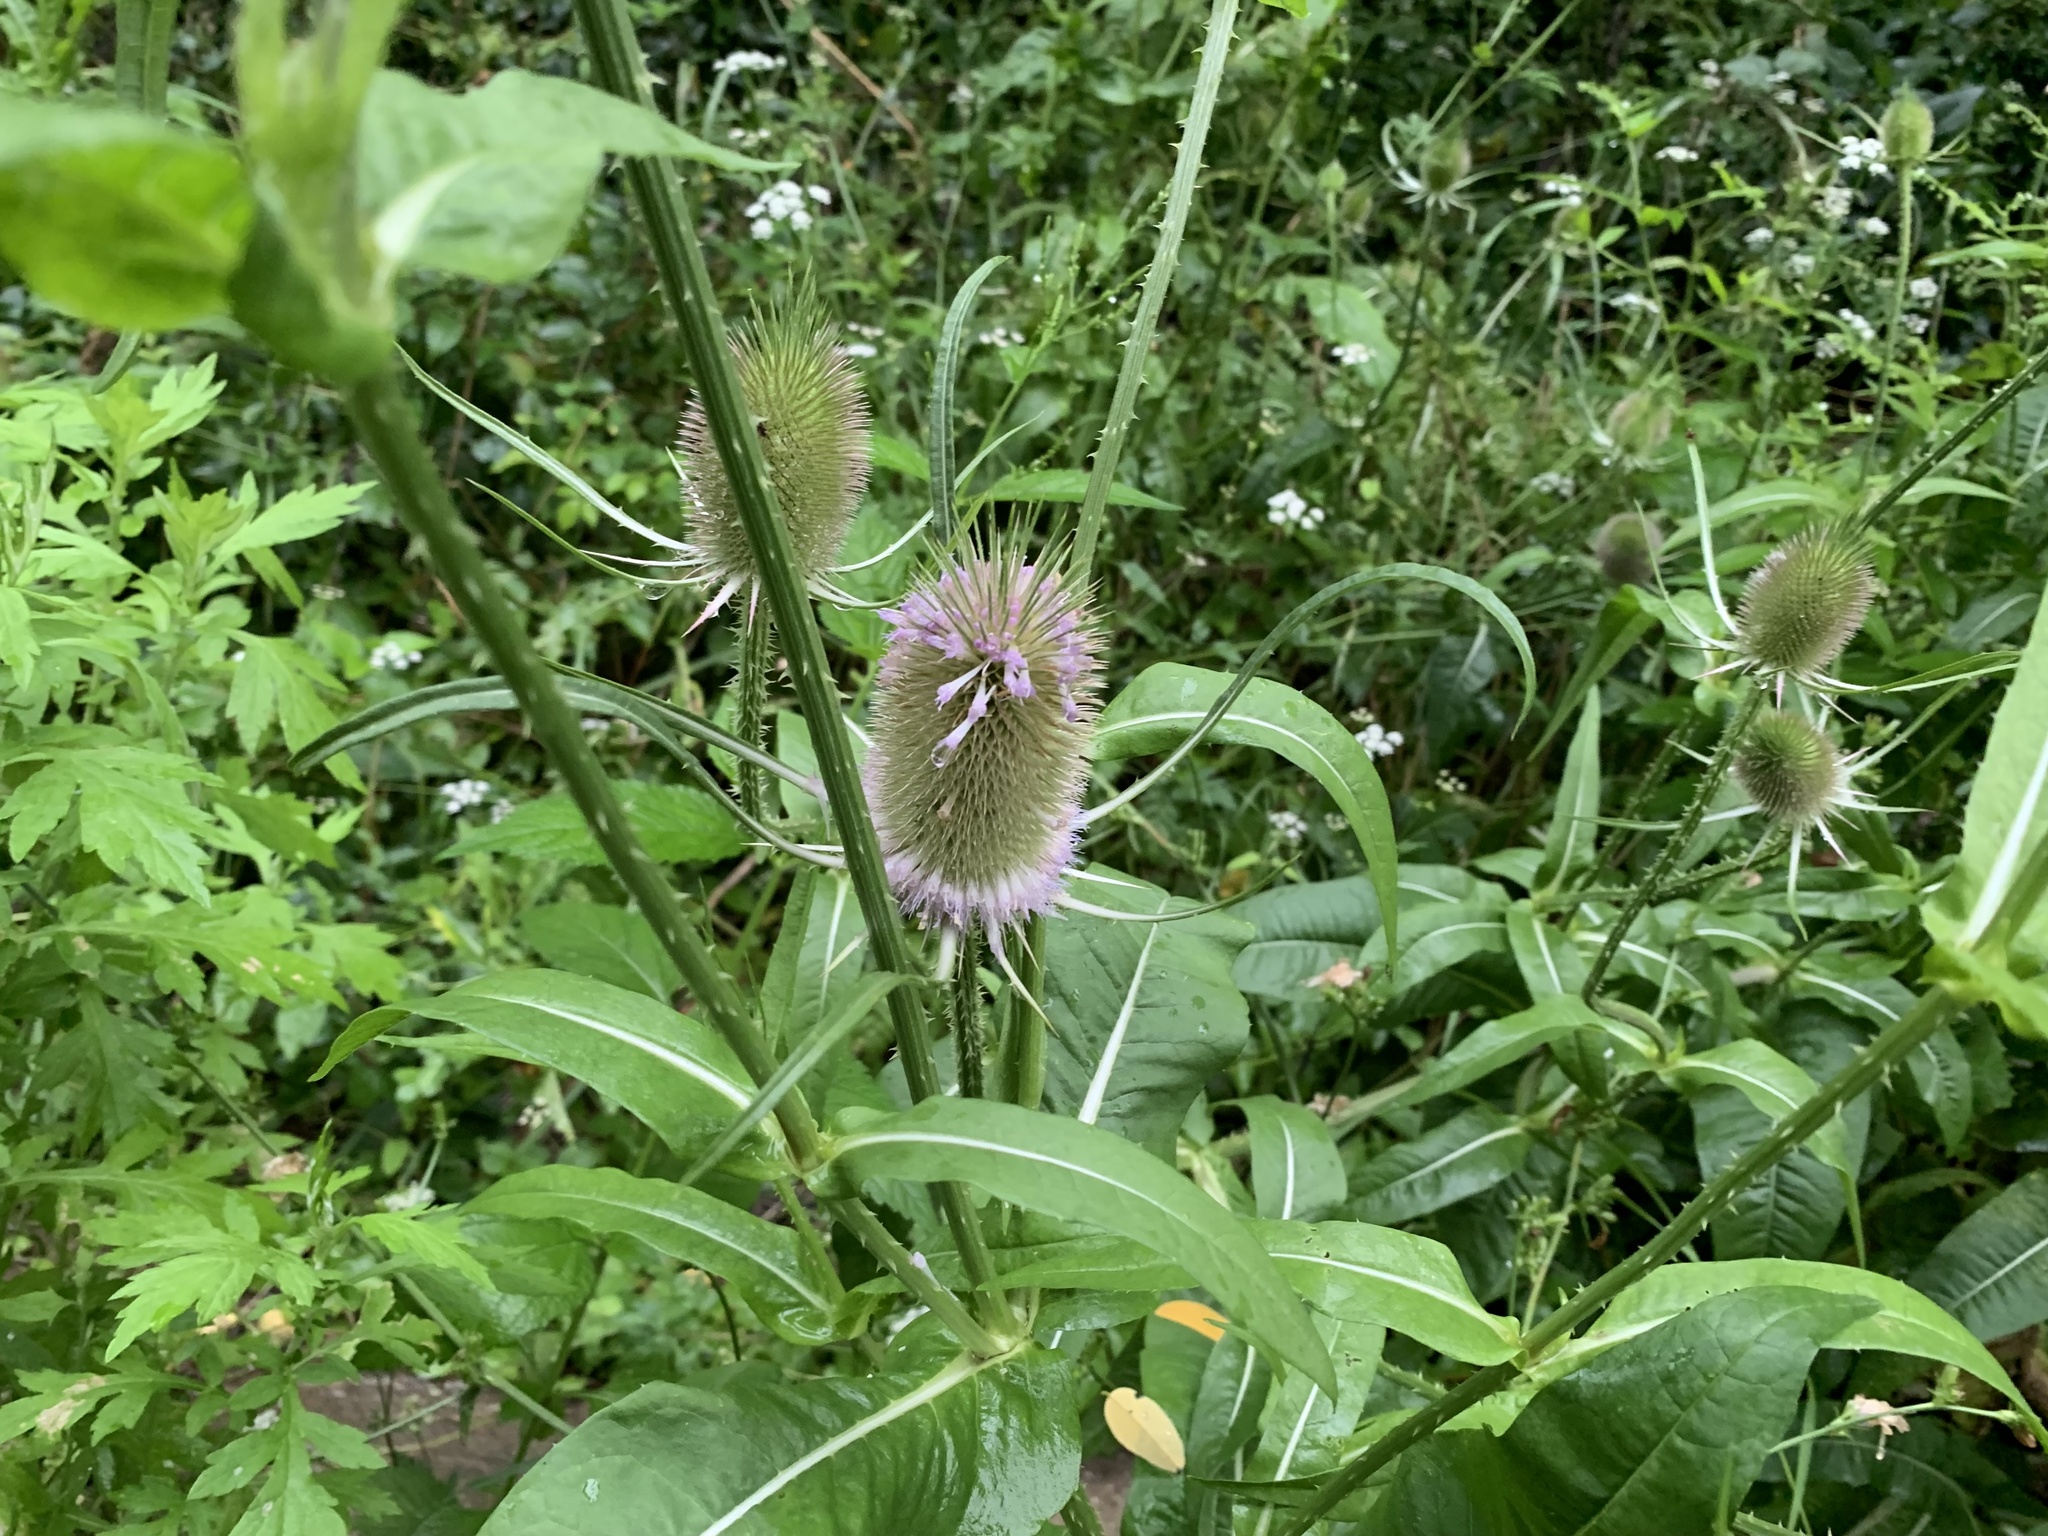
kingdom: Plantae
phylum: Tracheophyta
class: Magnoliopsida
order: Dipsacales
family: Caprifoliaceae
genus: Dipsacus
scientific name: Dipsacus fullonum
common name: Teasel
